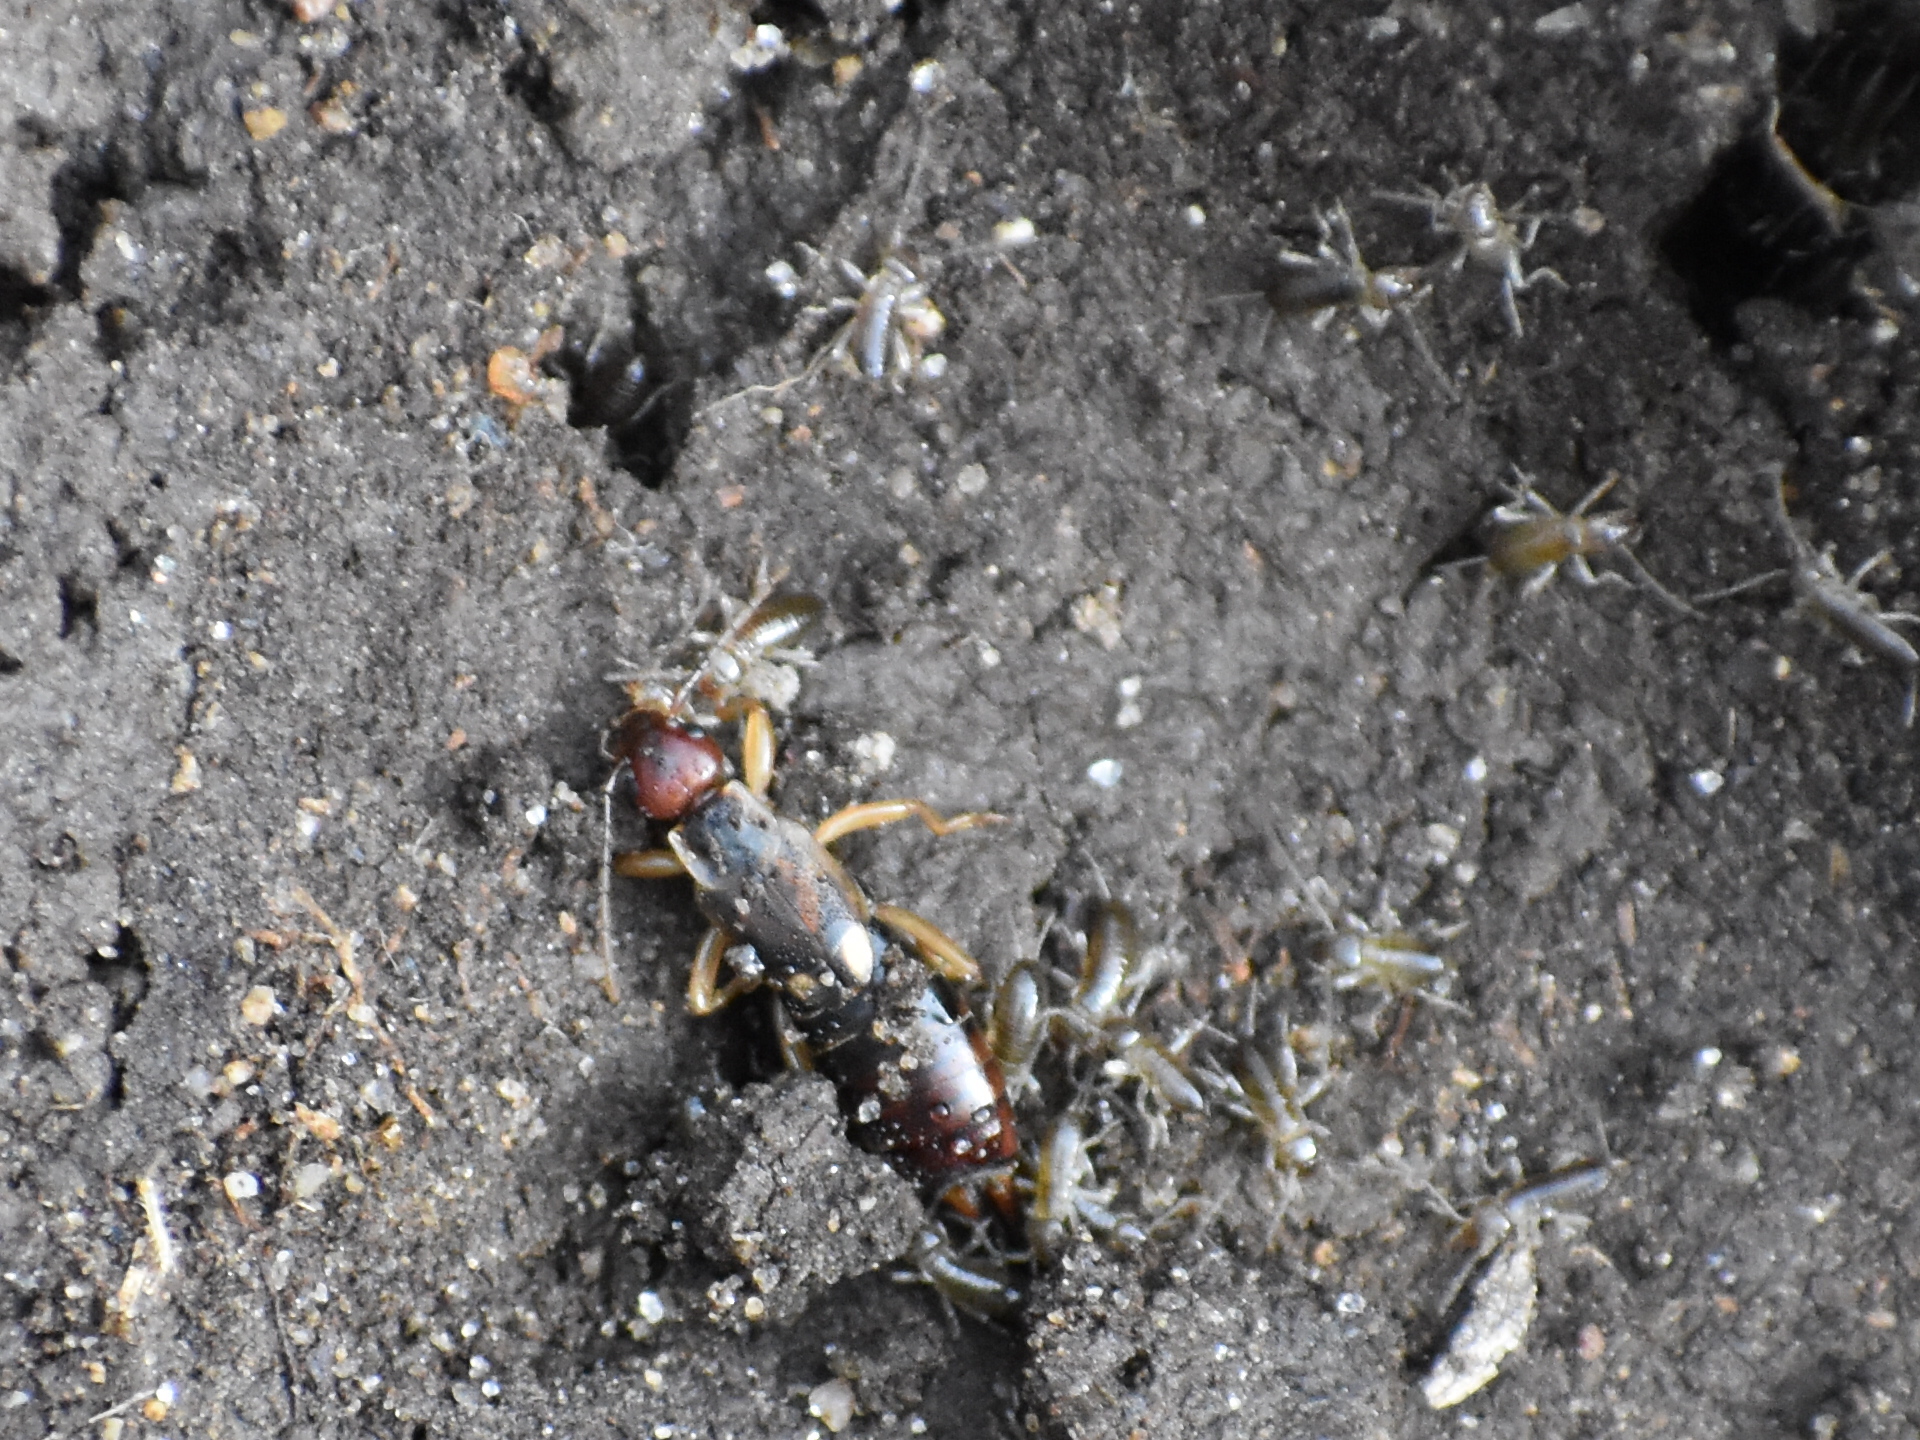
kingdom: Animalia
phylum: Arthropoda
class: Insecta
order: Dermaptera
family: Forficulidae
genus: Forficula
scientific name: Forficula
